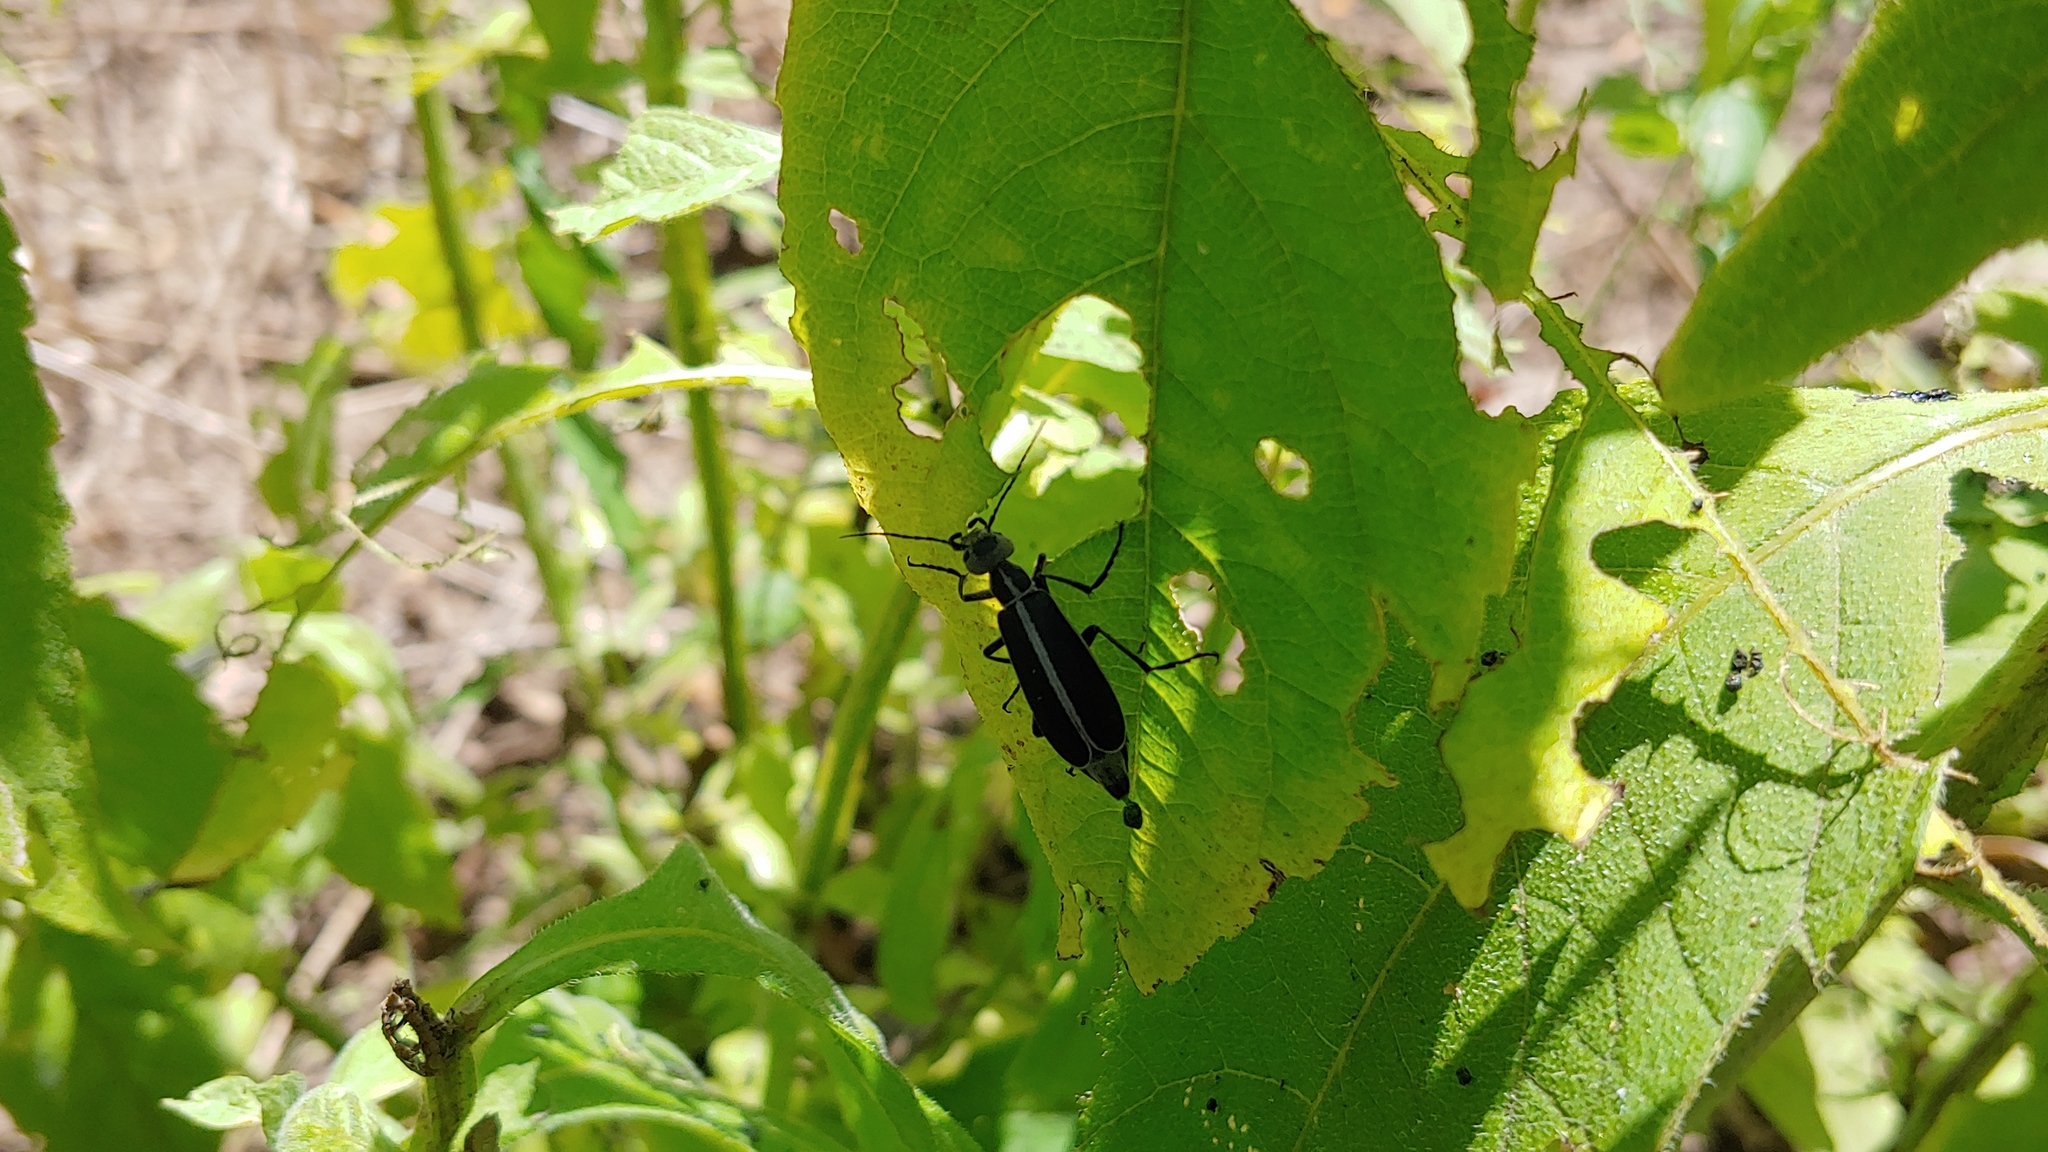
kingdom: Animalia
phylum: Arthropoda
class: Insecta
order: Coleoptera
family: Meloidae
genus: Epicauta
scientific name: Epicauta funebris
